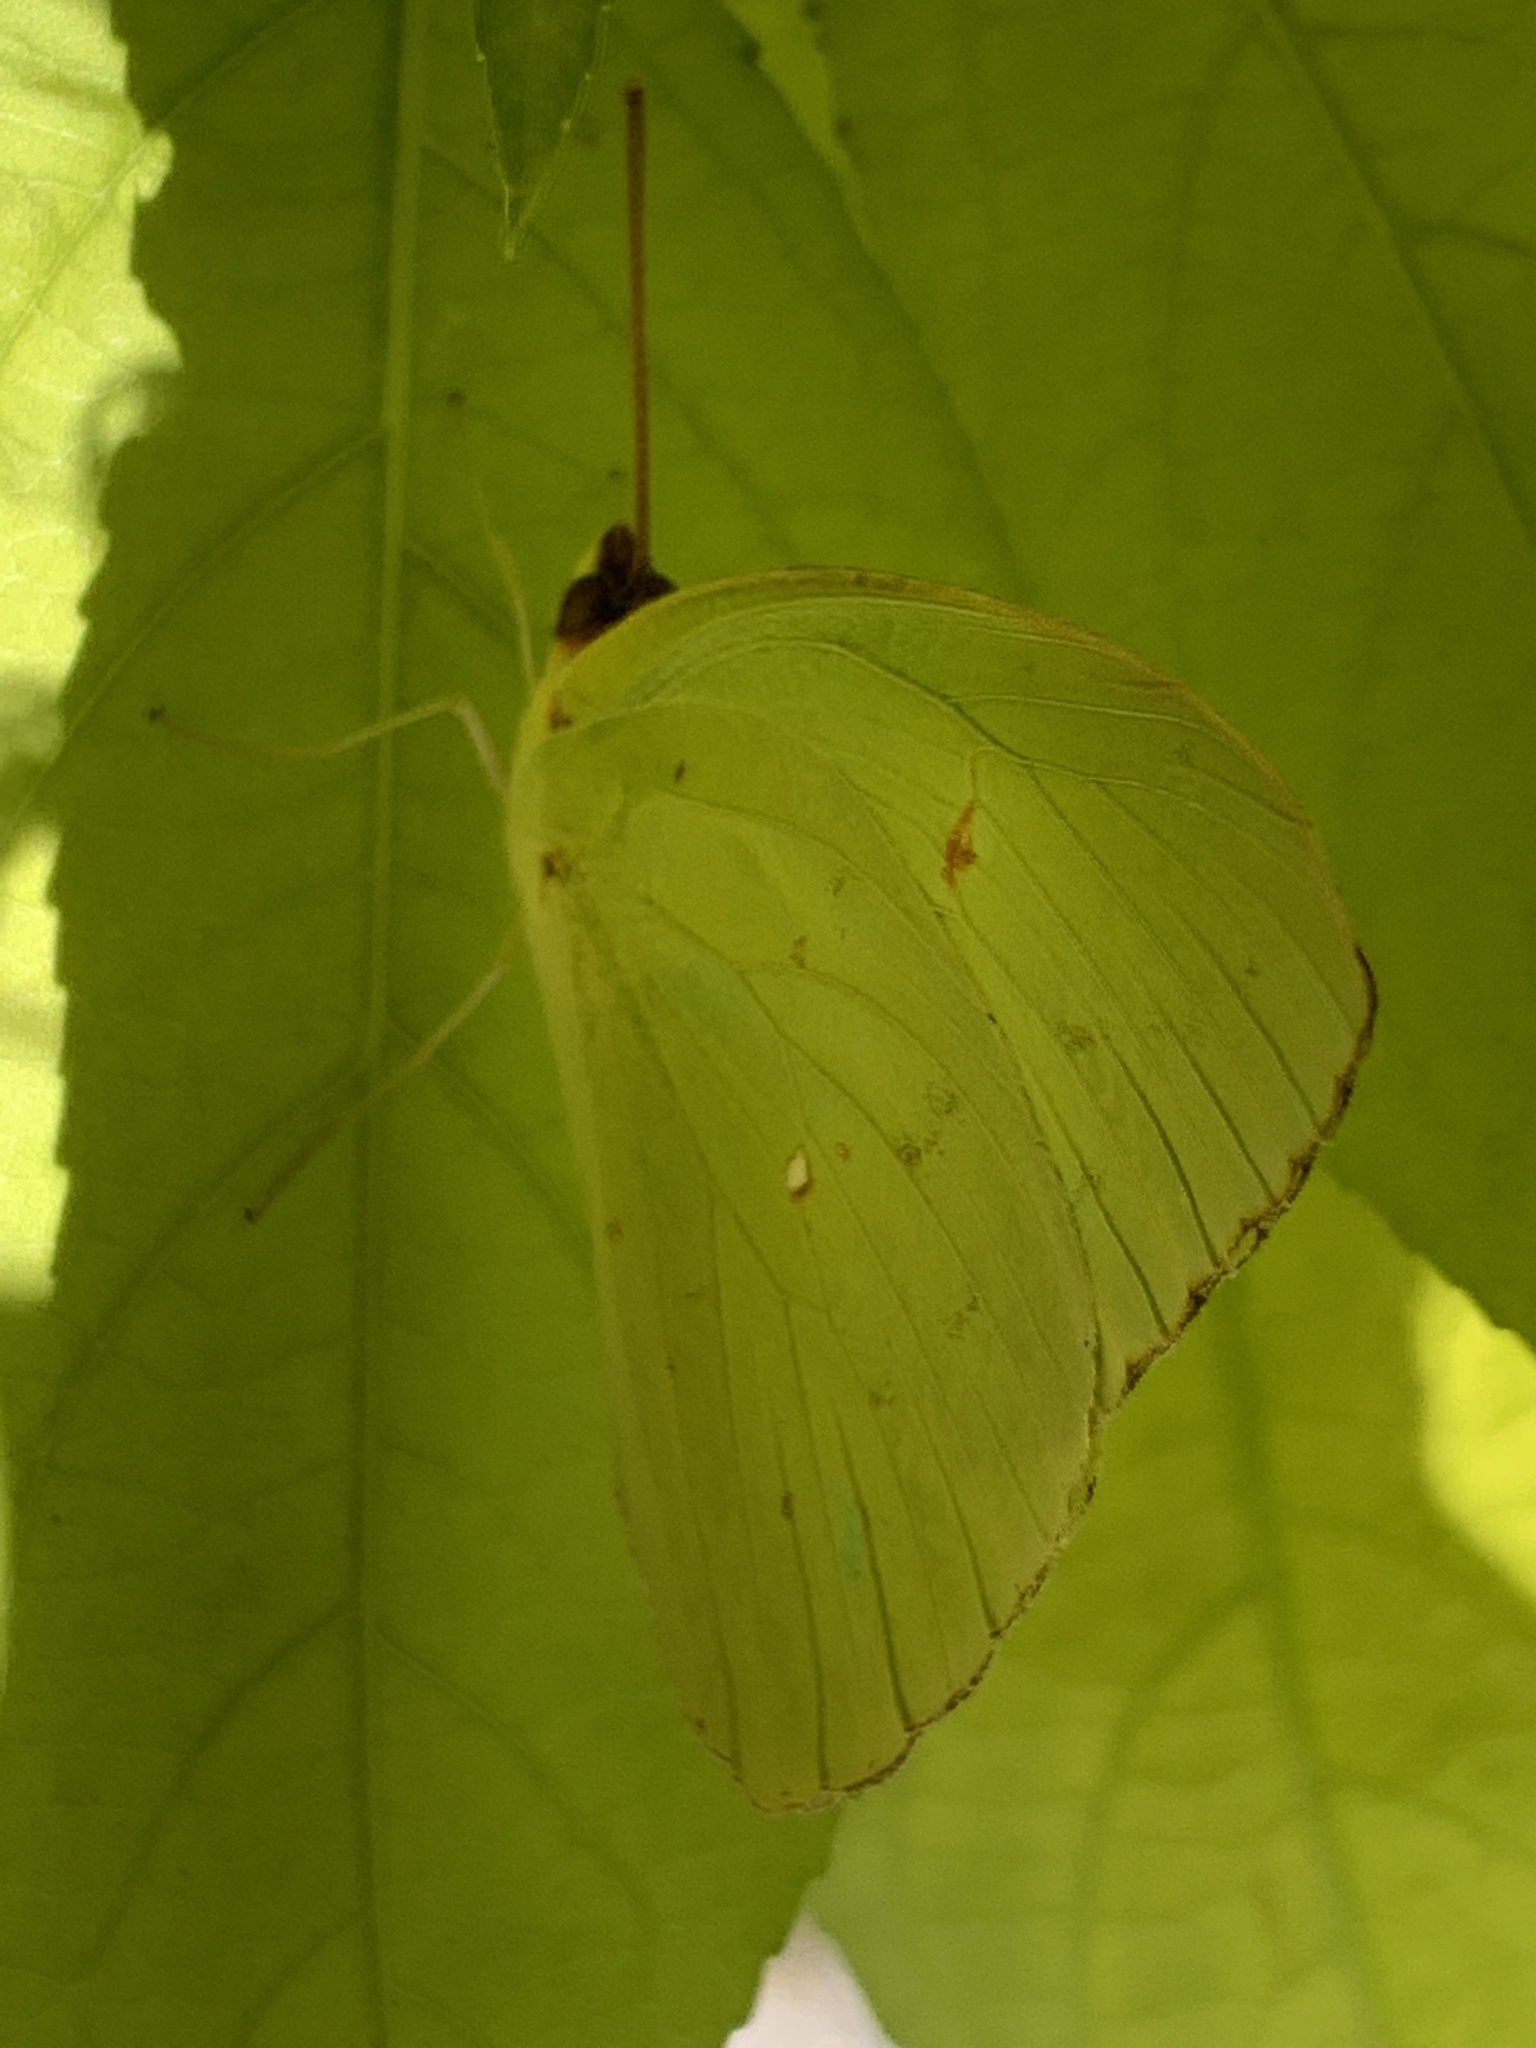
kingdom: Animalia
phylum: Arthropoda
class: Insecta
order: Lepidoptera
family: Pieridae
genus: Phoebis
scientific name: Phoebis sennae
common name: Cloudless sulphur
